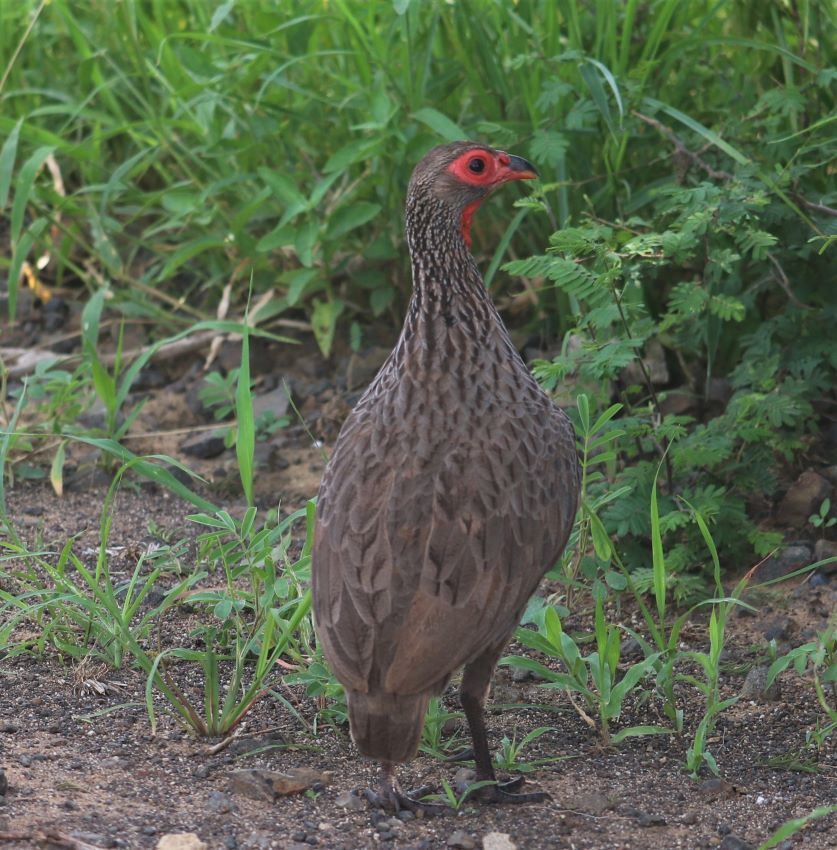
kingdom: Animalia
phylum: Chordata
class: Aves
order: Galliformes
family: Phasianidae
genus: Pternistis
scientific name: Pternistis swainsonii
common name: Swainson's spurfowl
